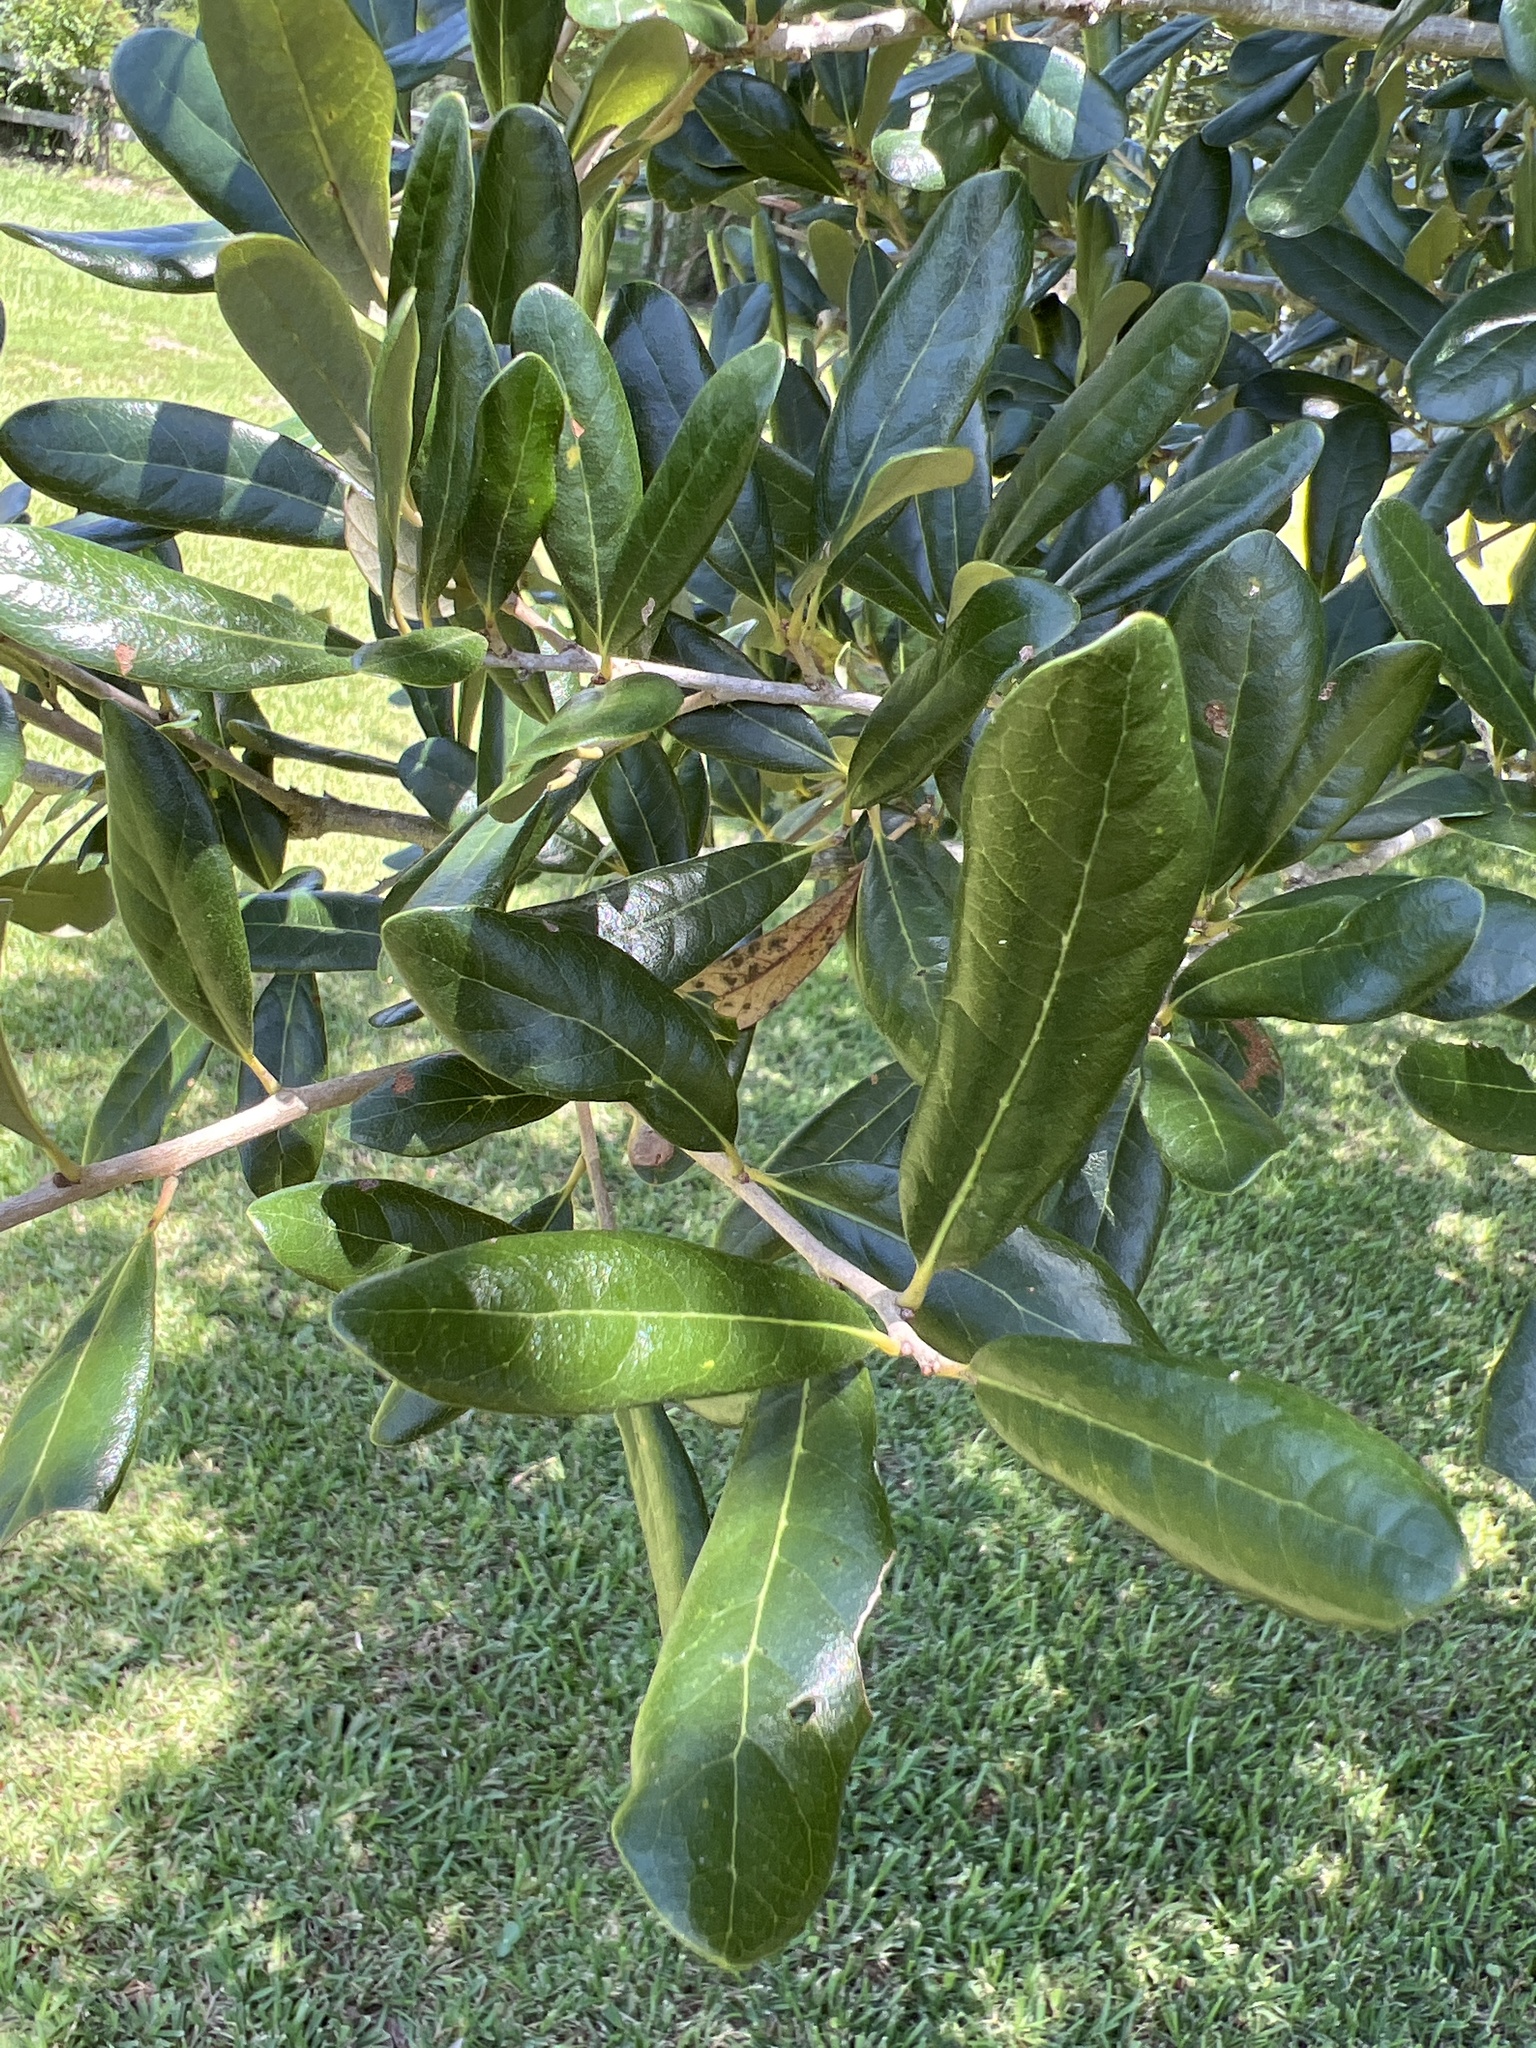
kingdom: Plantae
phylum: Tracheophyta
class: Magnoliopsida
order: Fagales
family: Fagaceae
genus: Quercus
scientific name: Quercus virginiana
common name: Southern live oak
